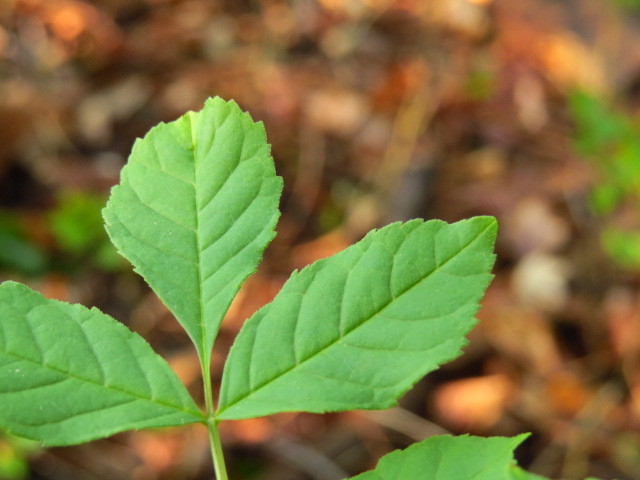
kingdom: Plantae
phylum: Tracheophyta
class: Magnoliopsida
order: Lamiales
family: Oleaceae
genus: Fraxinus
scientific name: Fraxinus excelsior
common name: European ash
